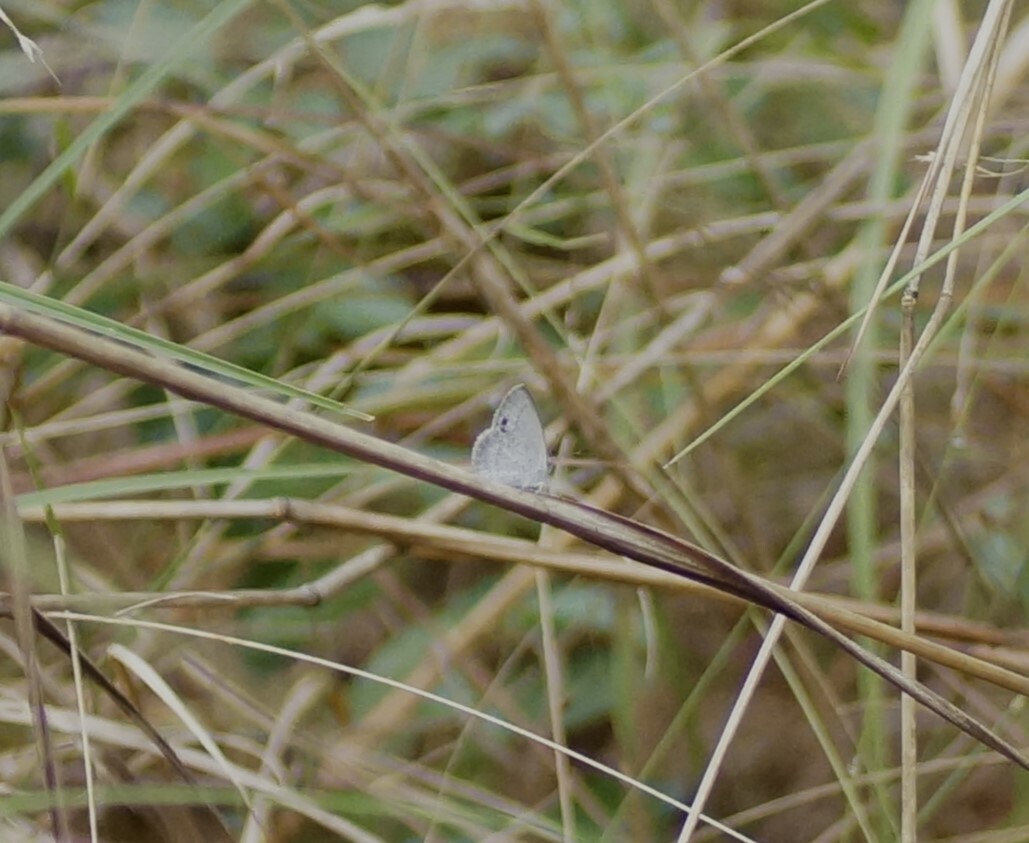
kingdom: Animalia
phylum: Arthropoda
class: Insecta
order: Lepidoptera
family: Lycaenidae
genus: Candalides
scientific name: Candalides
